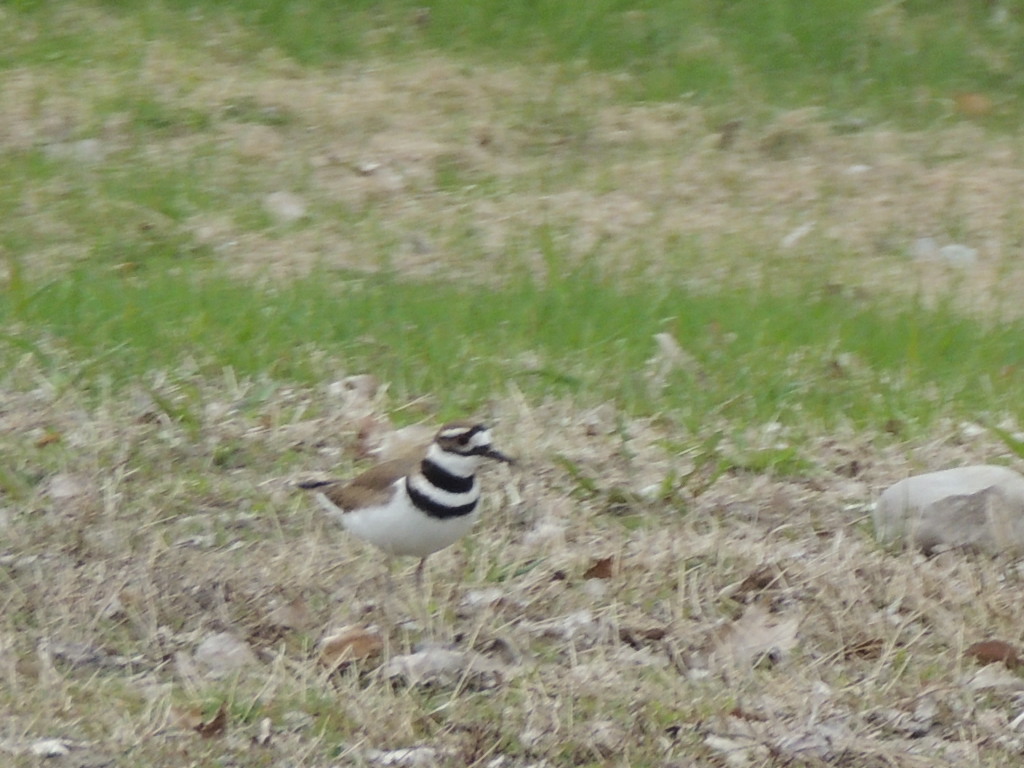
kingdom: Animalia
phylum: Chordata
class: Aves
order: Charadriiformes
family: Charadriidae
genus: Charadrius
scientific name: Charadrius vociferus
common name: Killdeer
